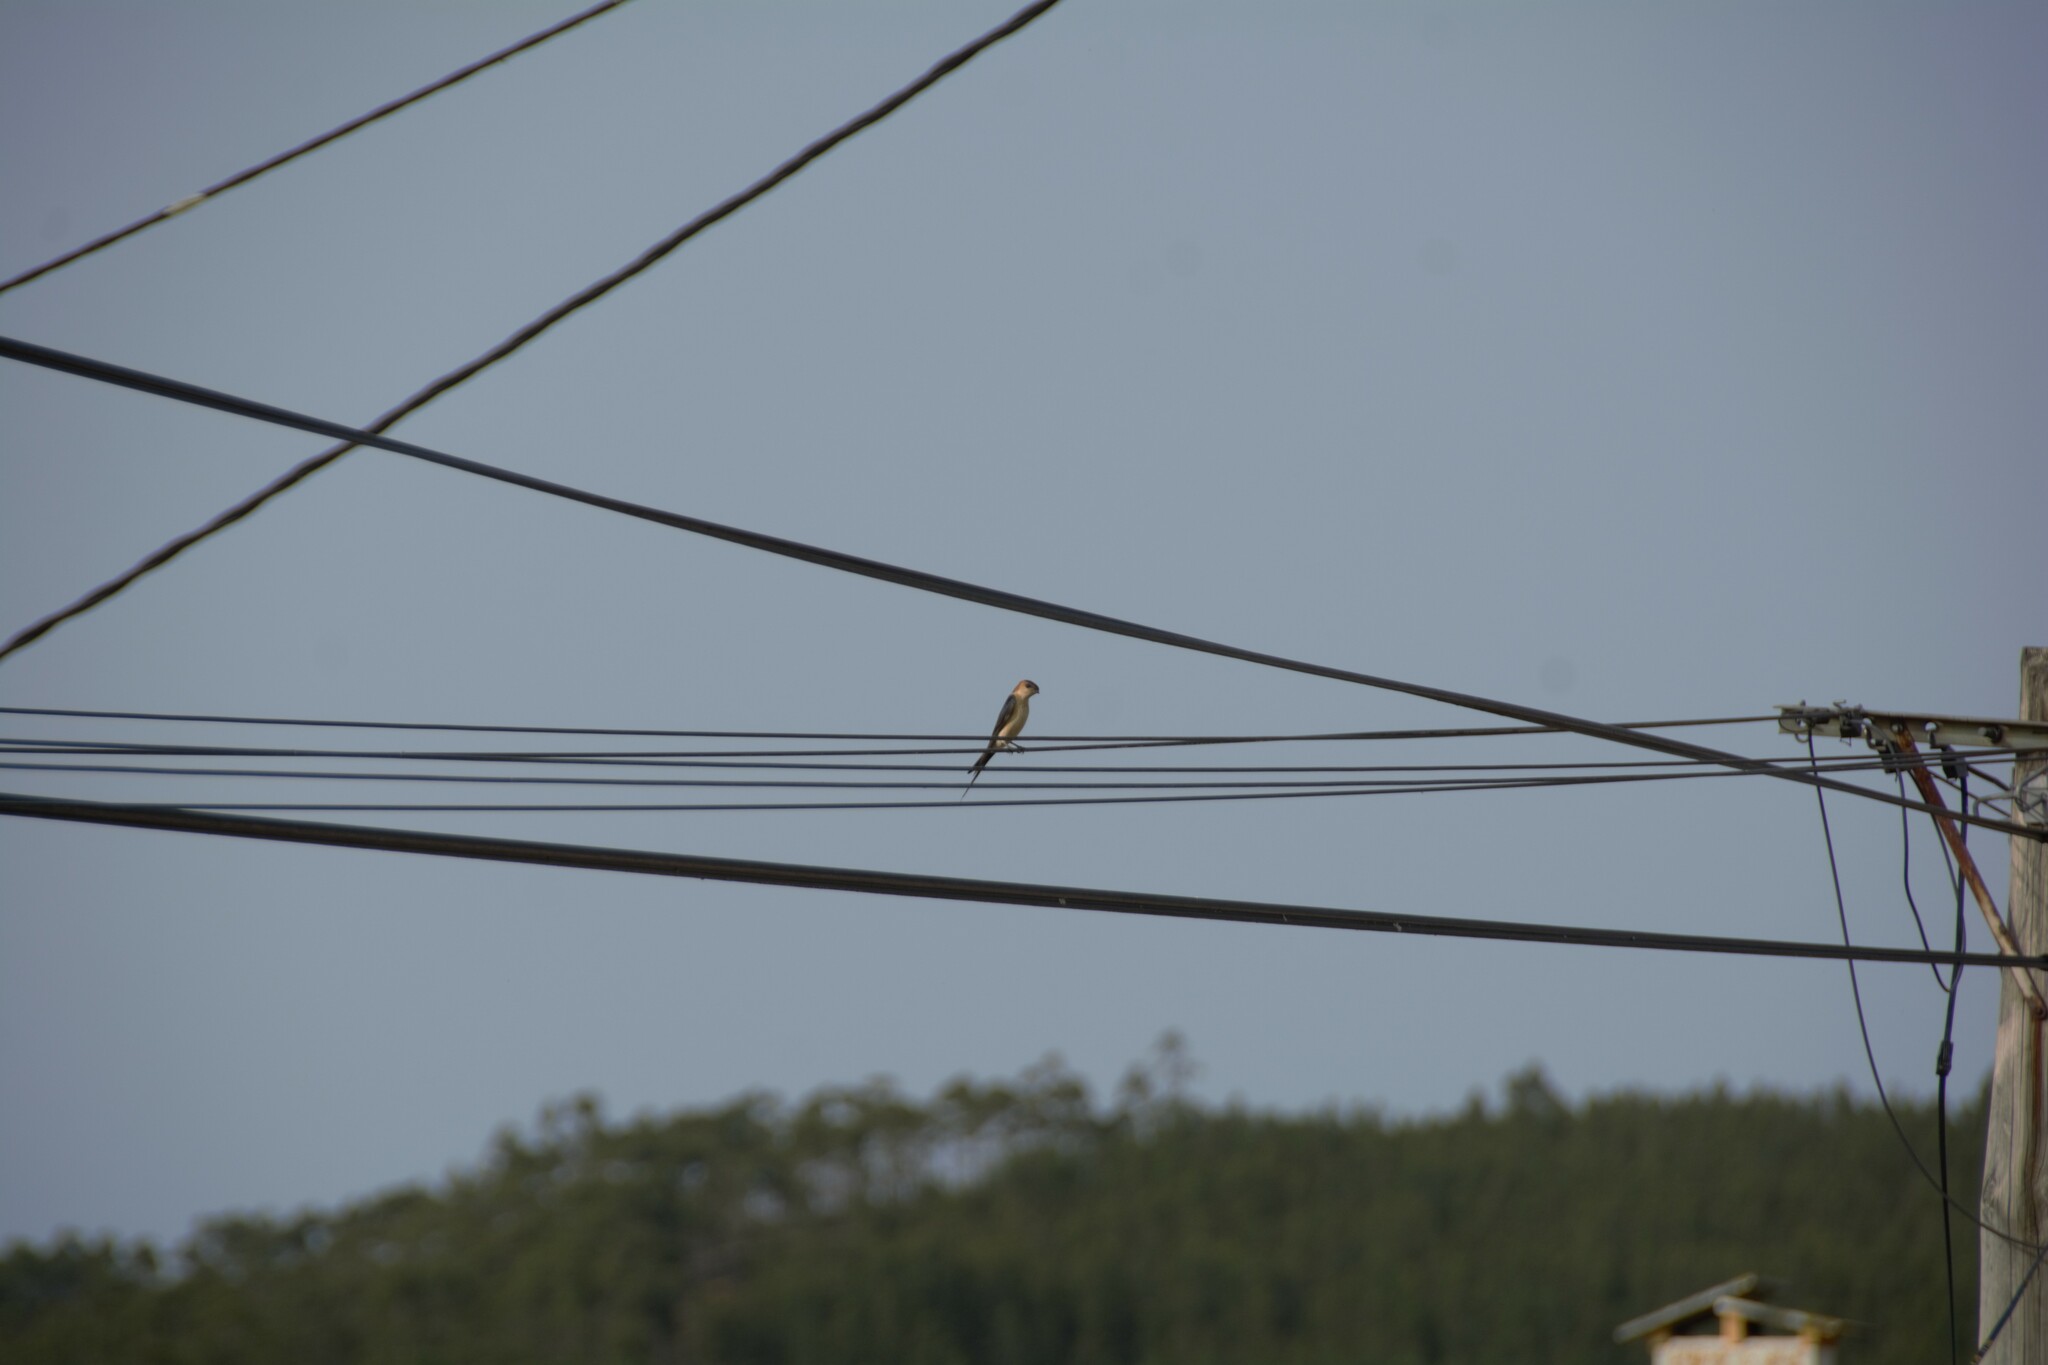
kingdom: Animalia
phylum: Chordata
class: Aves
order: Passeriformes
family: Hirundinidae
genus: Cecropis
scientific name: Cecropis daurica
